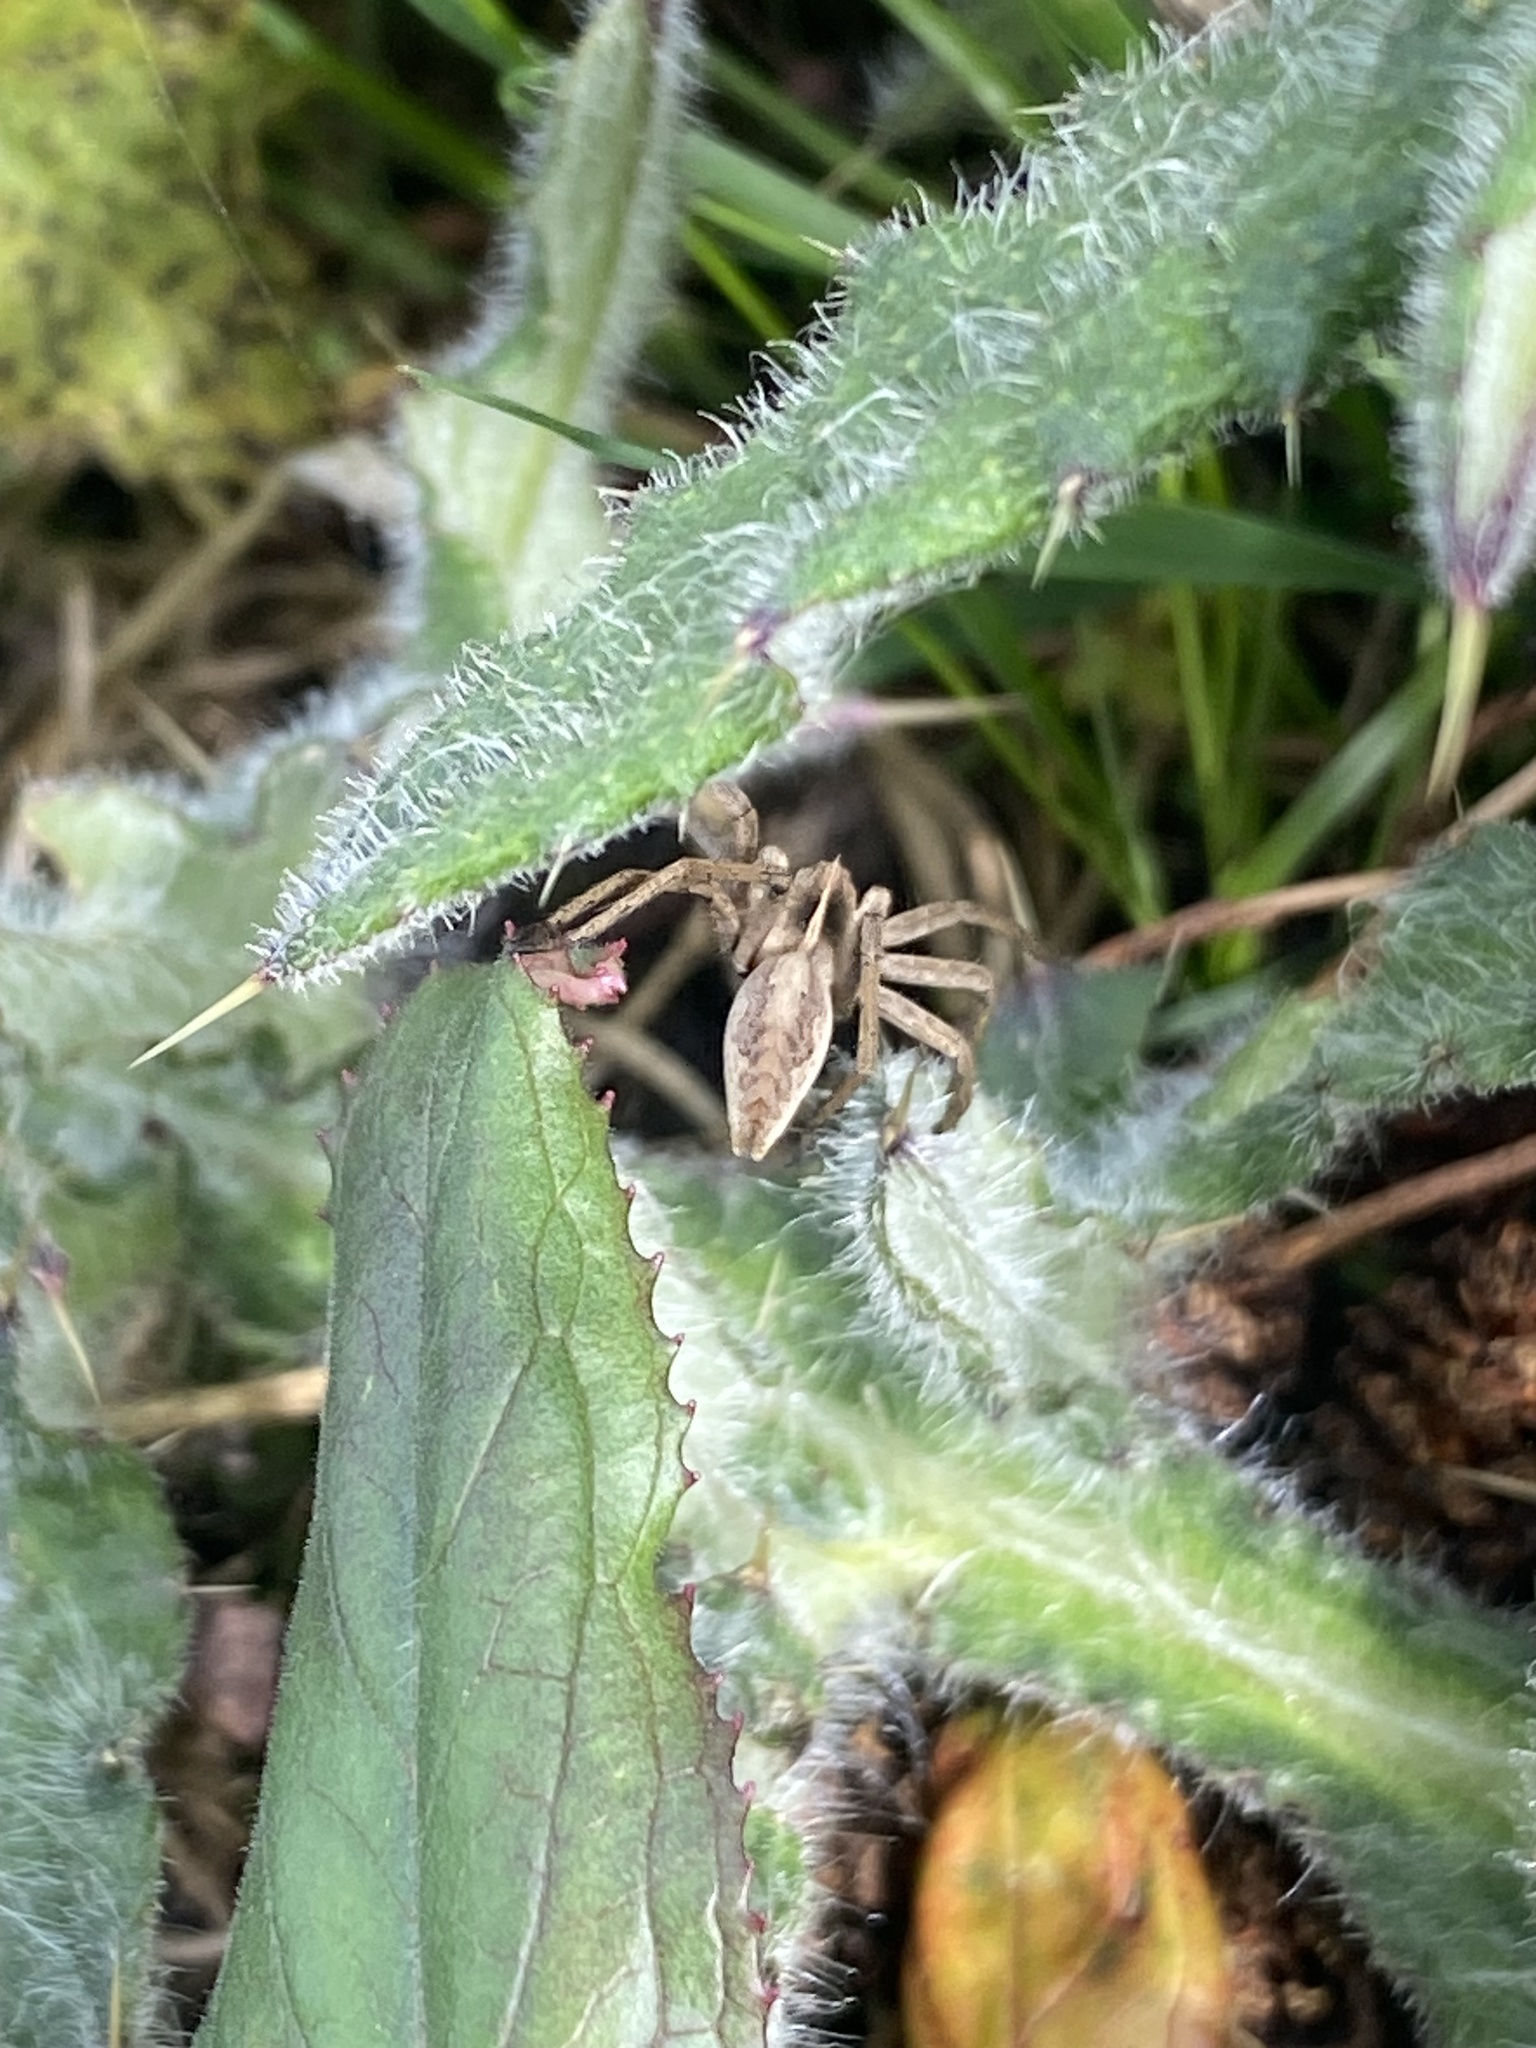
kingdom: Animalia
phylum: Arthropoda
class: Arachnida
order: Araneae
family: Pisauridae
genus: Pisaura
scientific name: Pisaura mirabilis
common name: Tent spider
